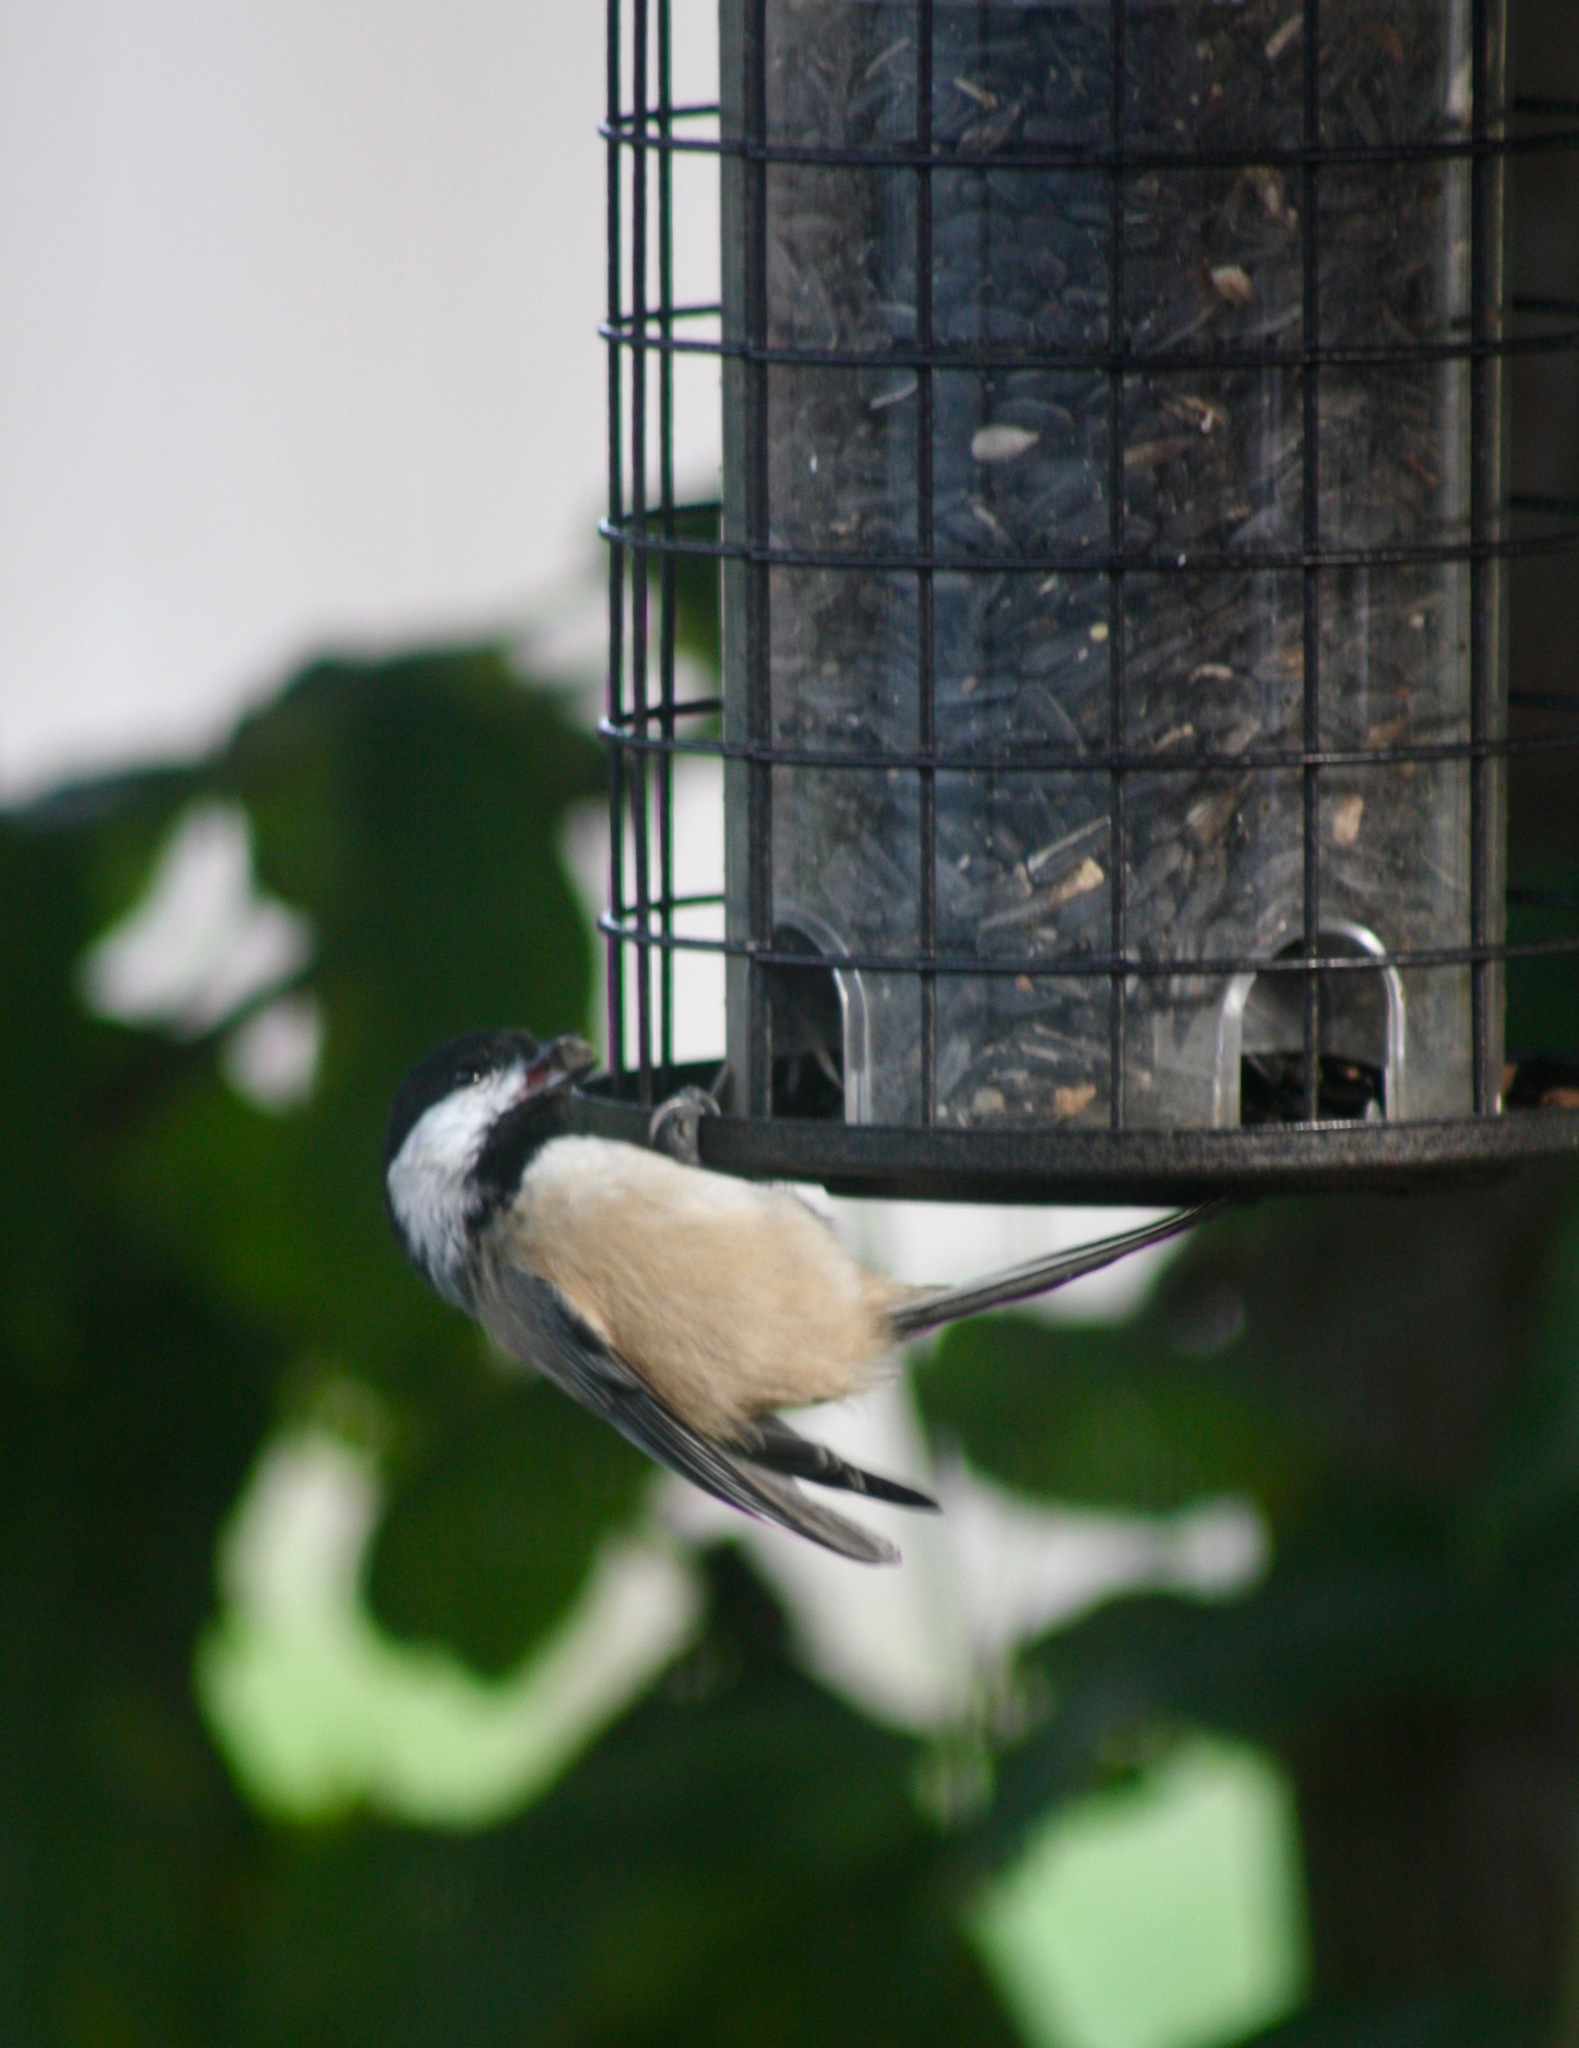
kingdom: Animalia
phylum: Chordata
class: Aves
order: Passeriformes
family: Paridae
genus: Poecile
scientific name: Poecile atricapillus
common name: Black-capped chickadee
